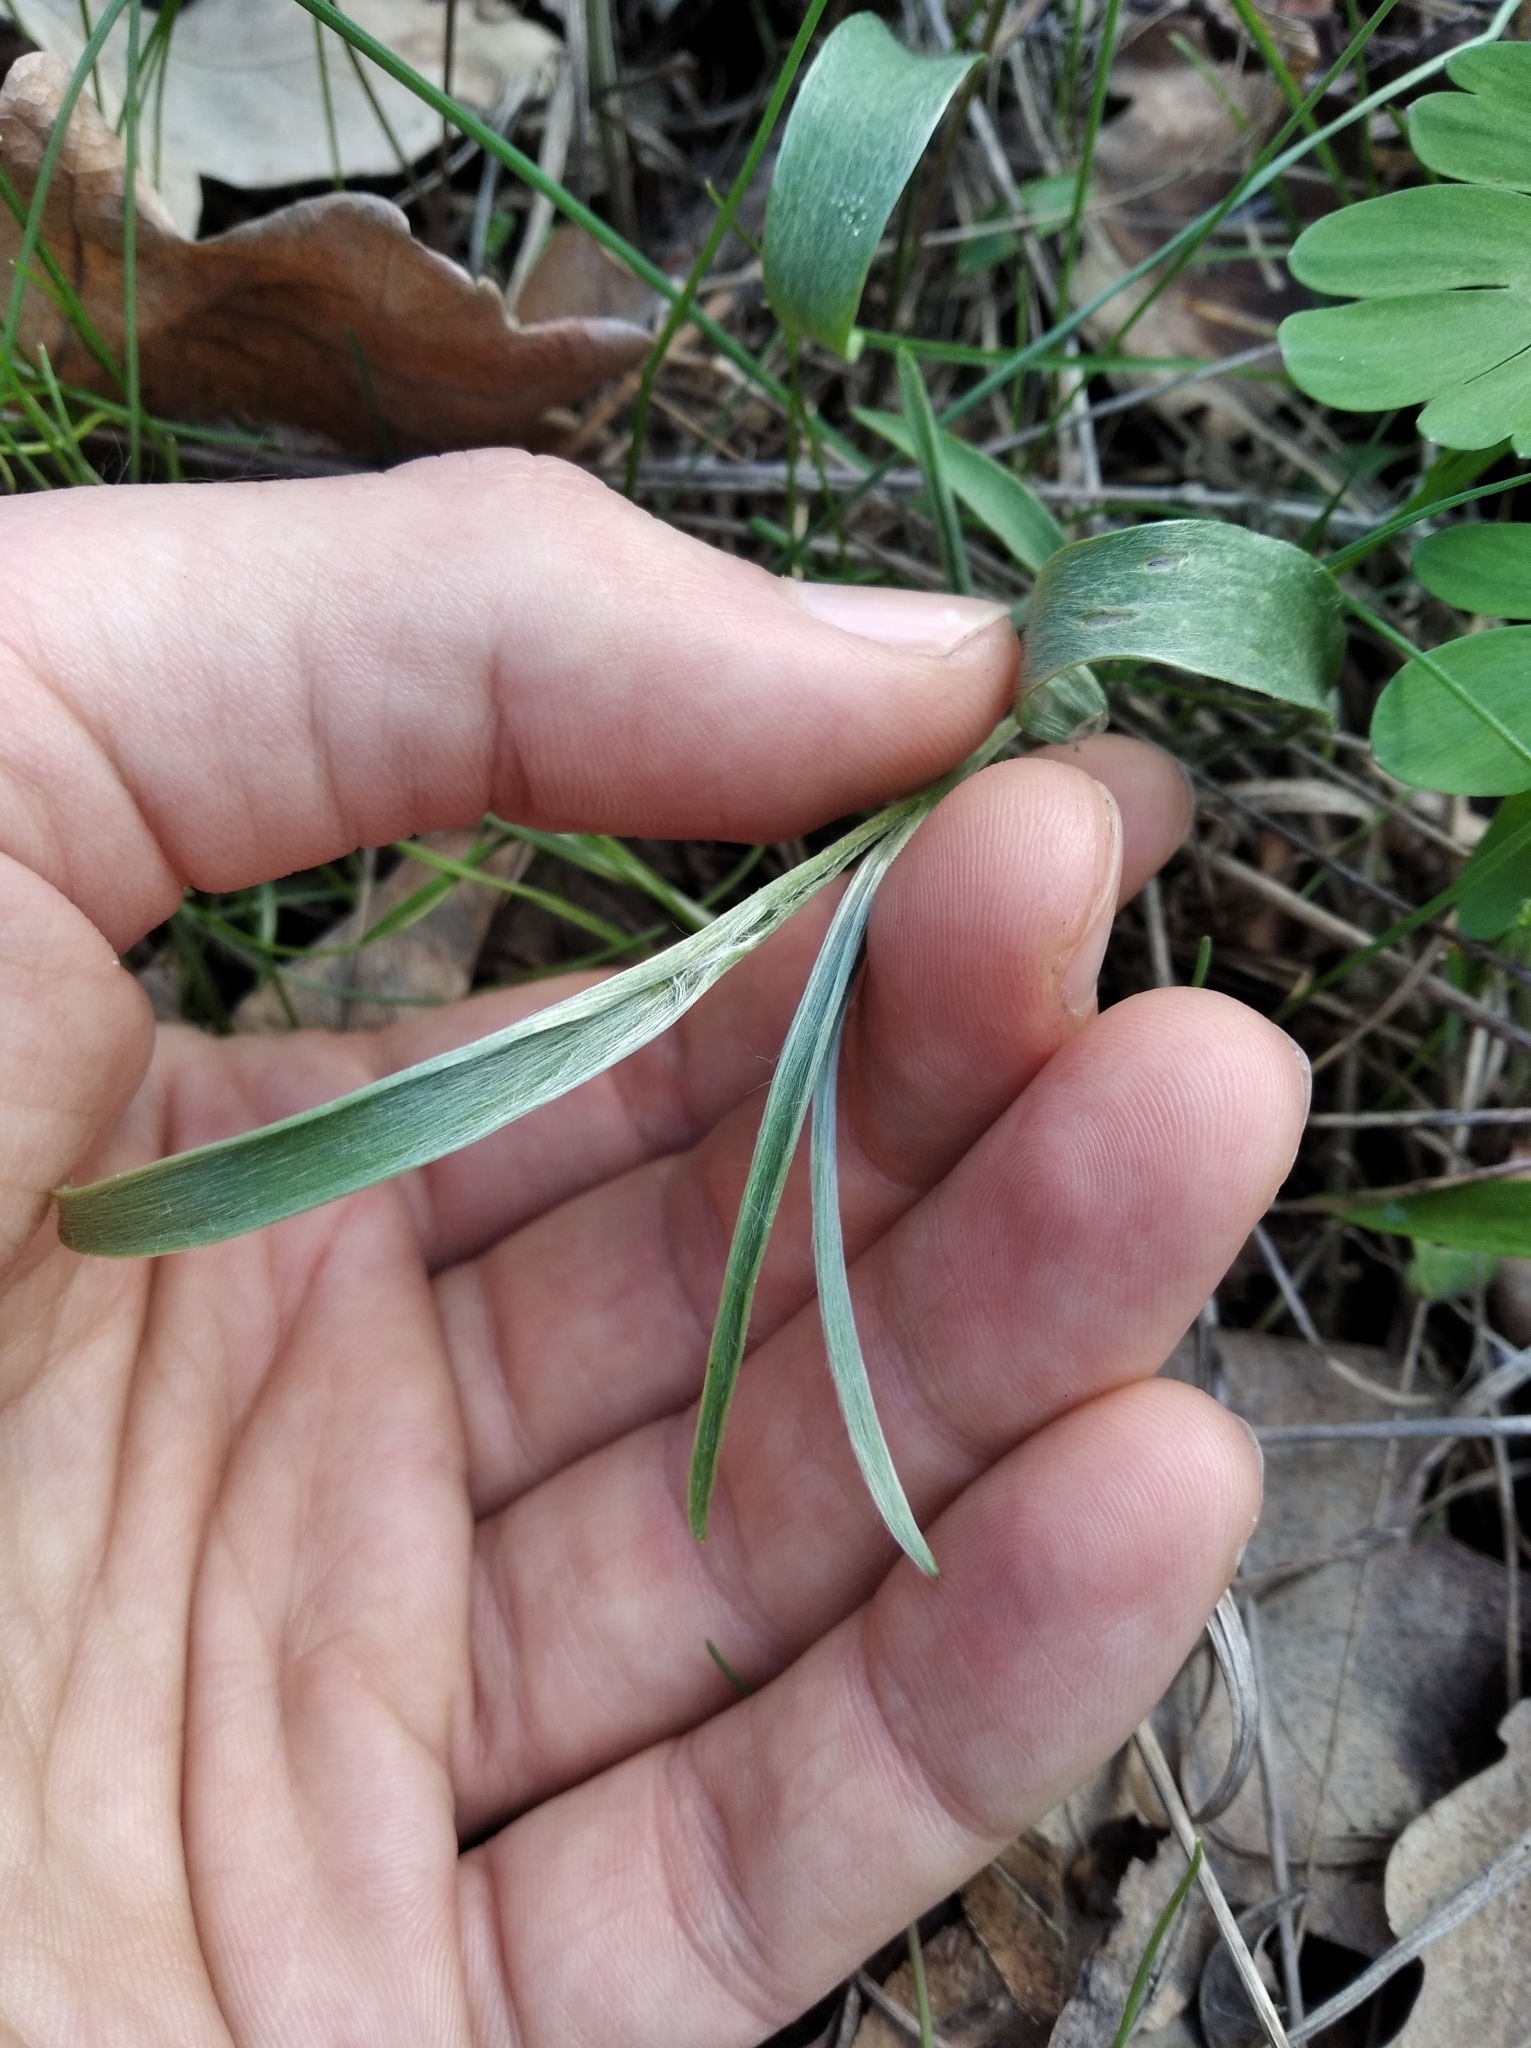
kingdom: Plantae
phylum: Tracheophyta
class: Magnoliopsida
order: Ranunculales
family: Ranunculaceae
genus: Ranunculus
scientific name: Ranunculus illyricus
